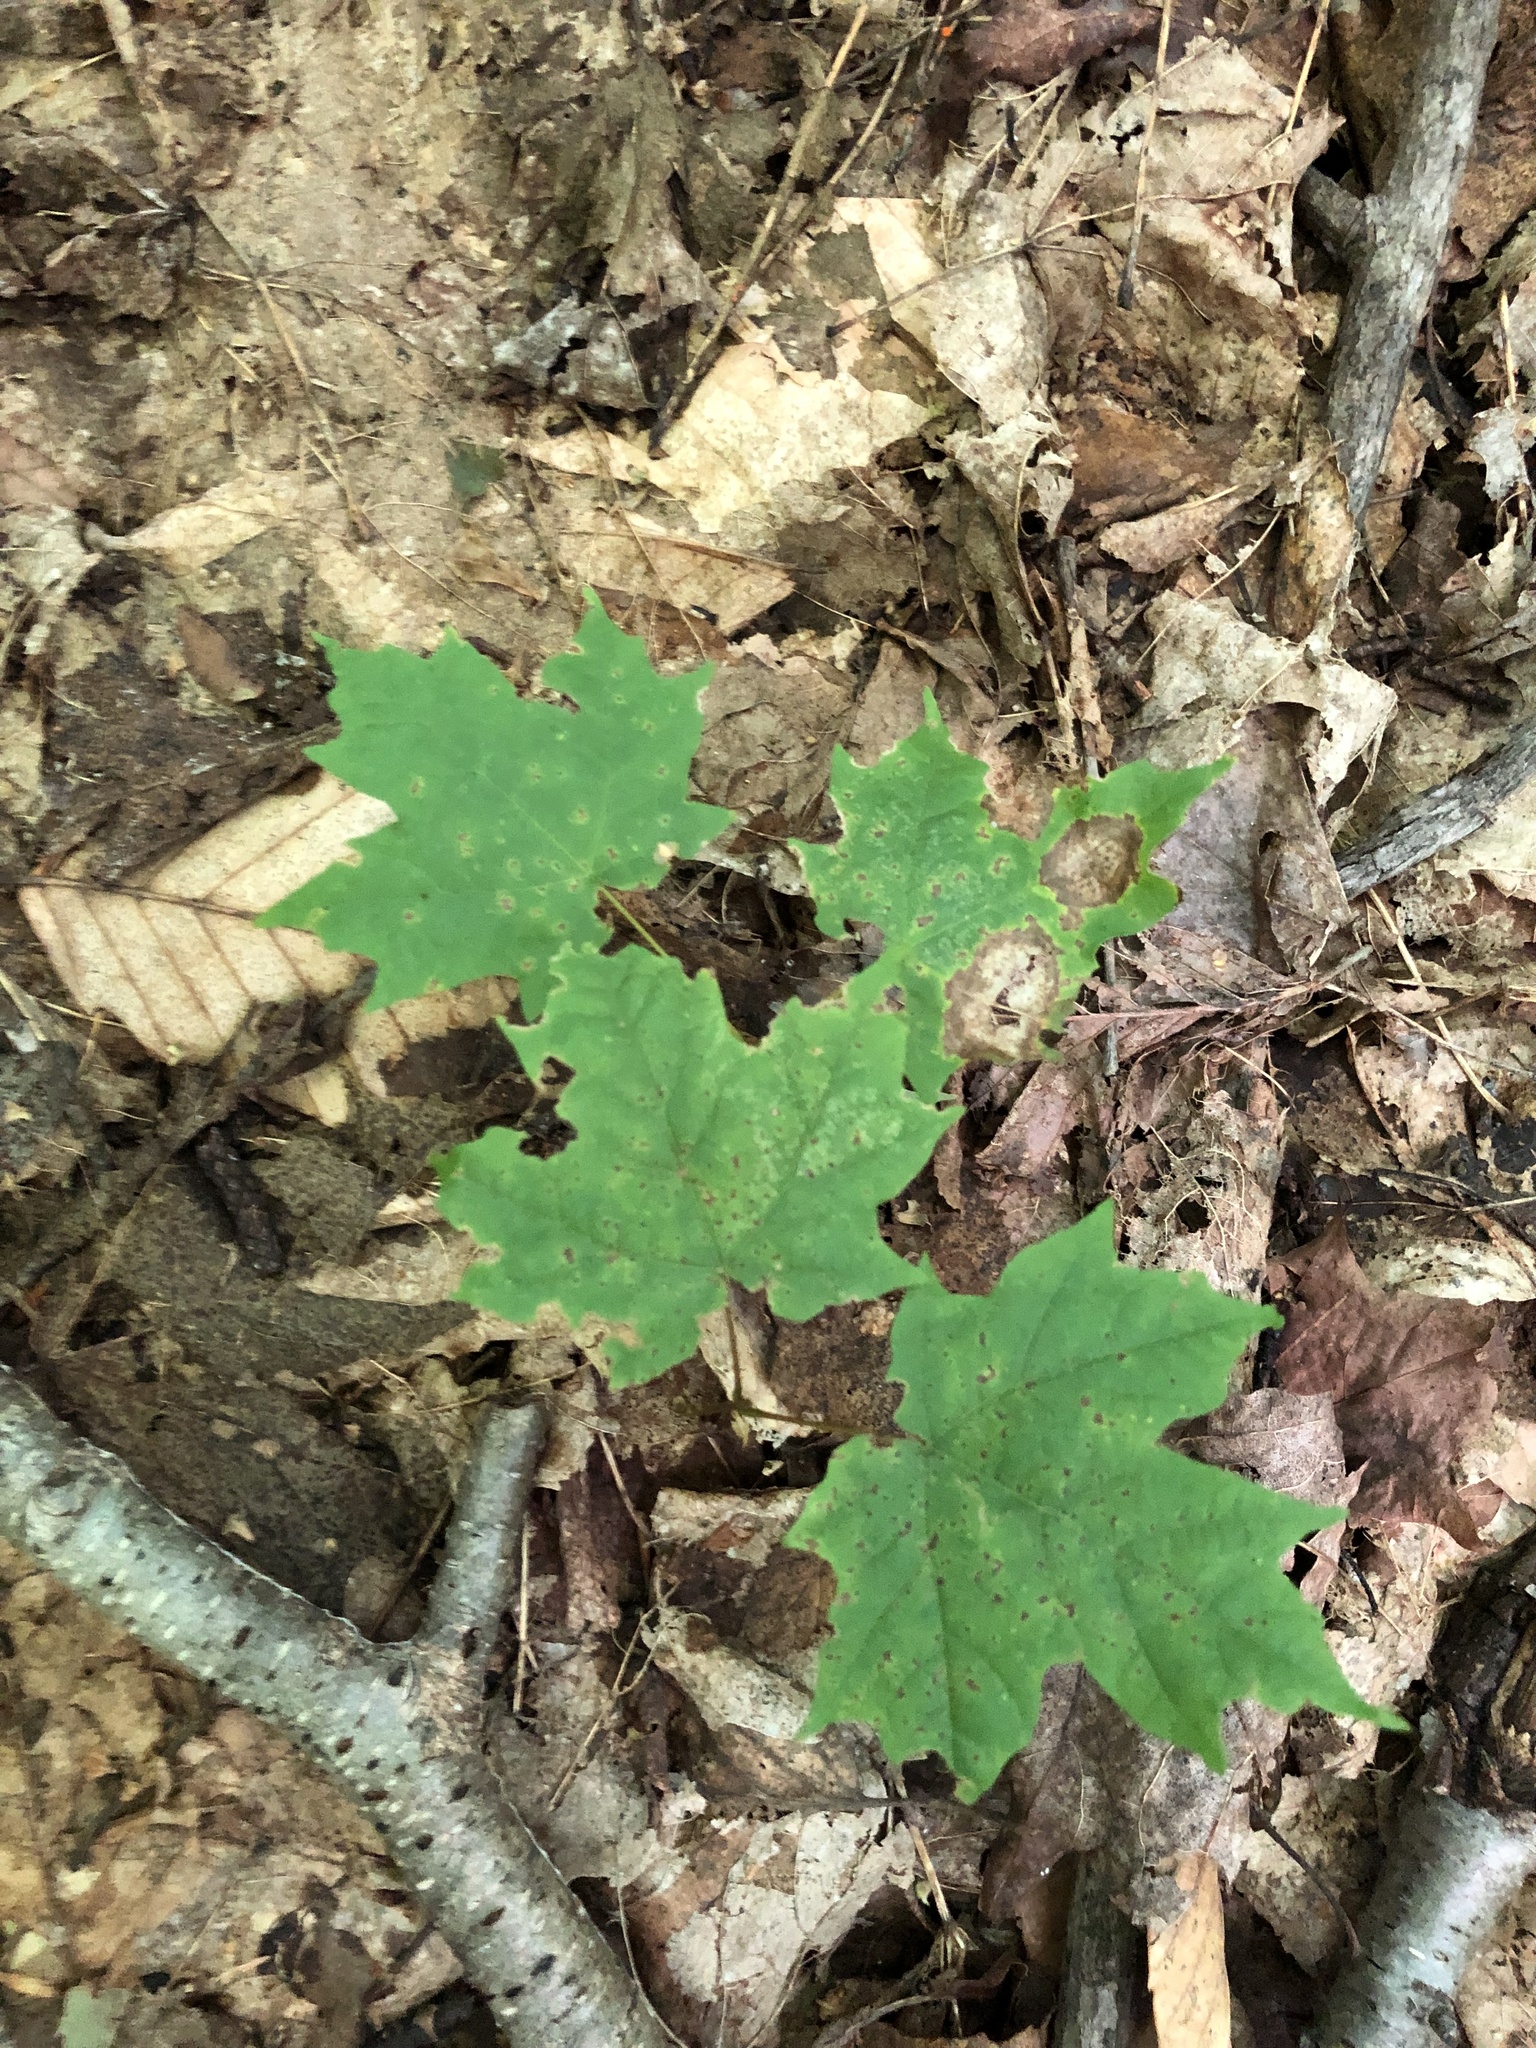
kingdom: Plantae
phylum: Tracheophyta
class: Magnoliopsida
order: Sapindales
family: Sapindaceae
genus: Acer
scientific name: Acer saccharum
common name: Sugar maple
